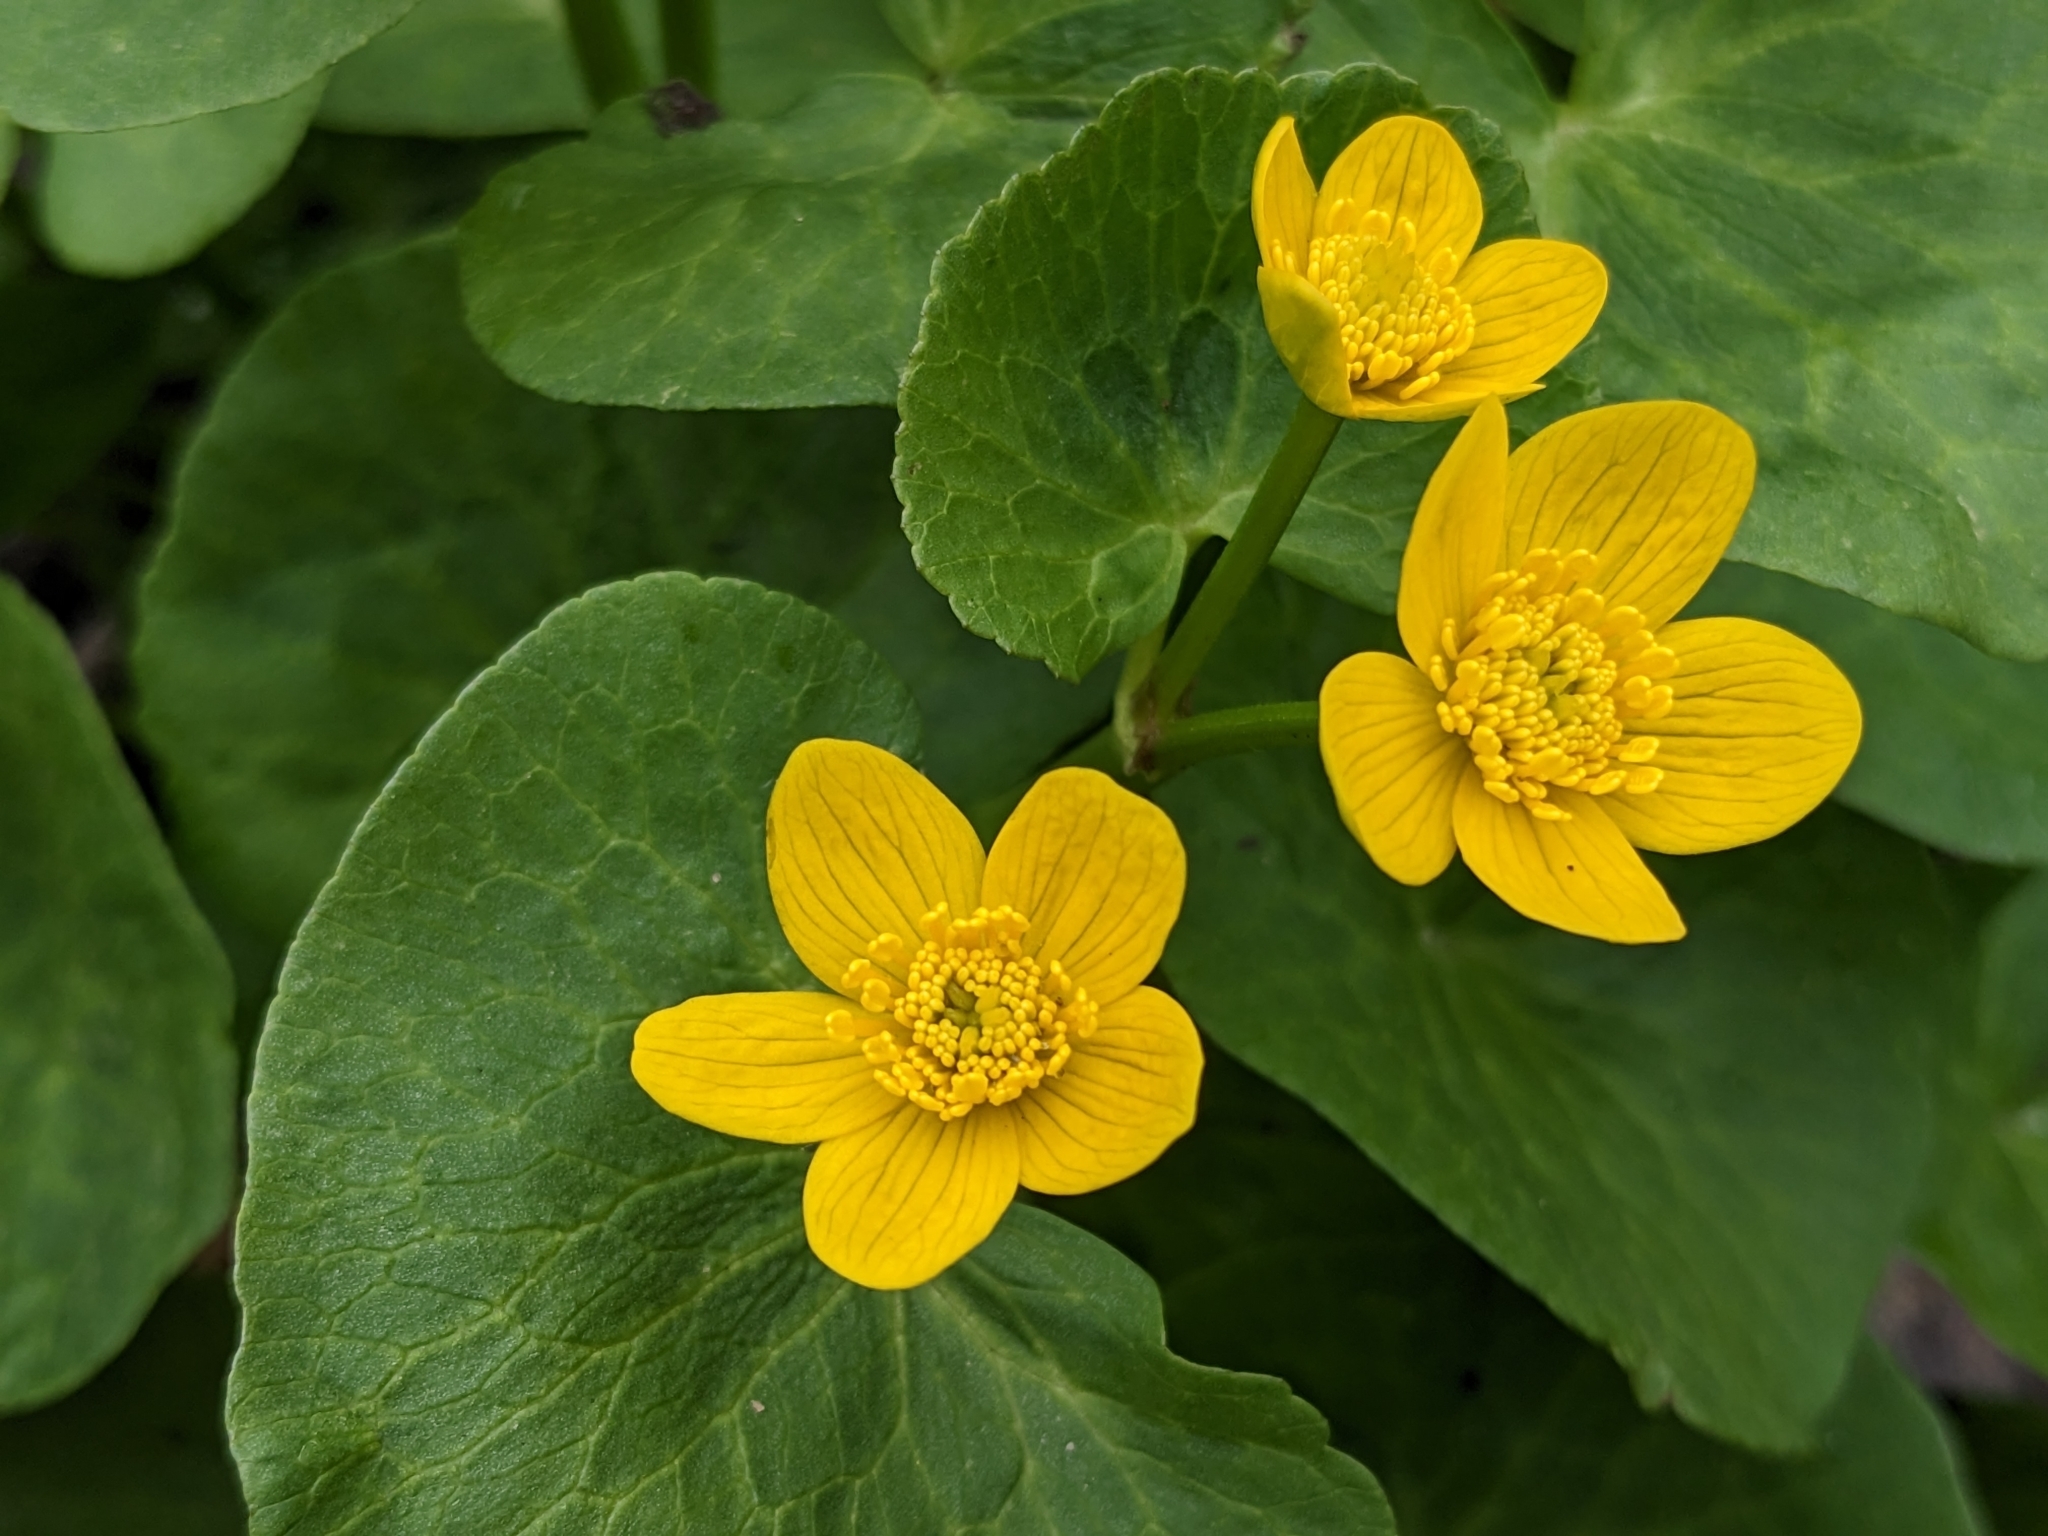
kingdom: Plantae
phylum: Tracheophyta
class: Magnoliopsida
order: Ranunculales
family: Ranunculaceae
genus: Caltha
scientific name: Caltha palustris
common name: Marsh marigold
